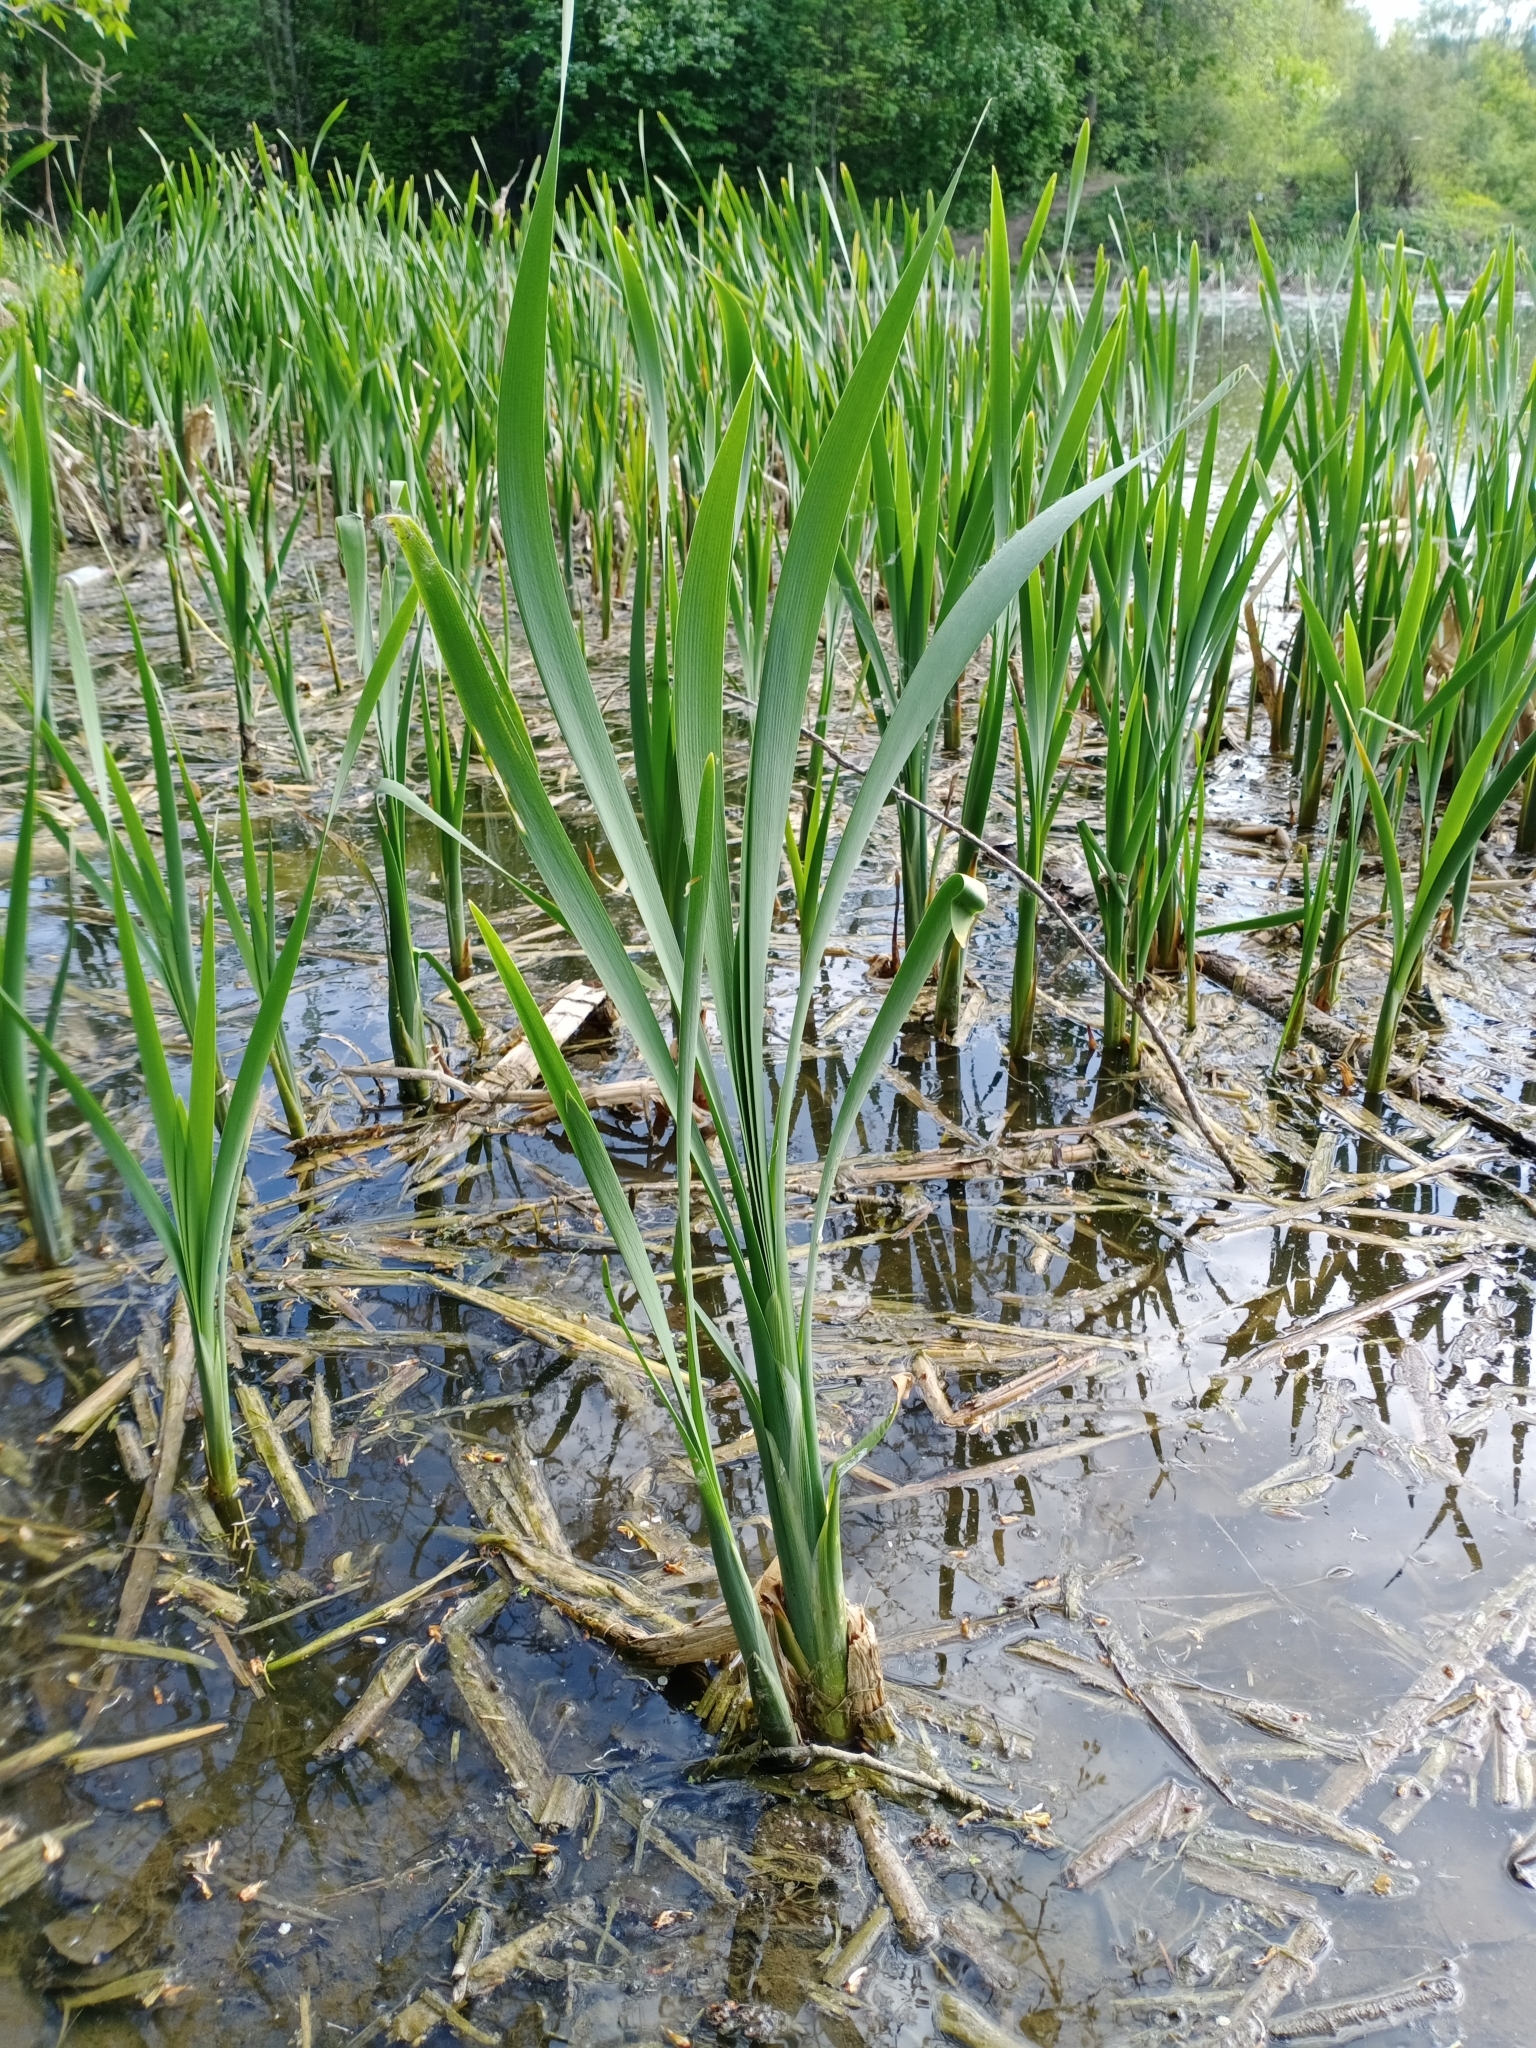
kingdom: Plantae
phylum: Tracheophyta
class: Liliopsida
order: Poales
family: Typhaceae
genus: Typha
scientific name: Typha latifolia
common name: Broadleaf cattail
